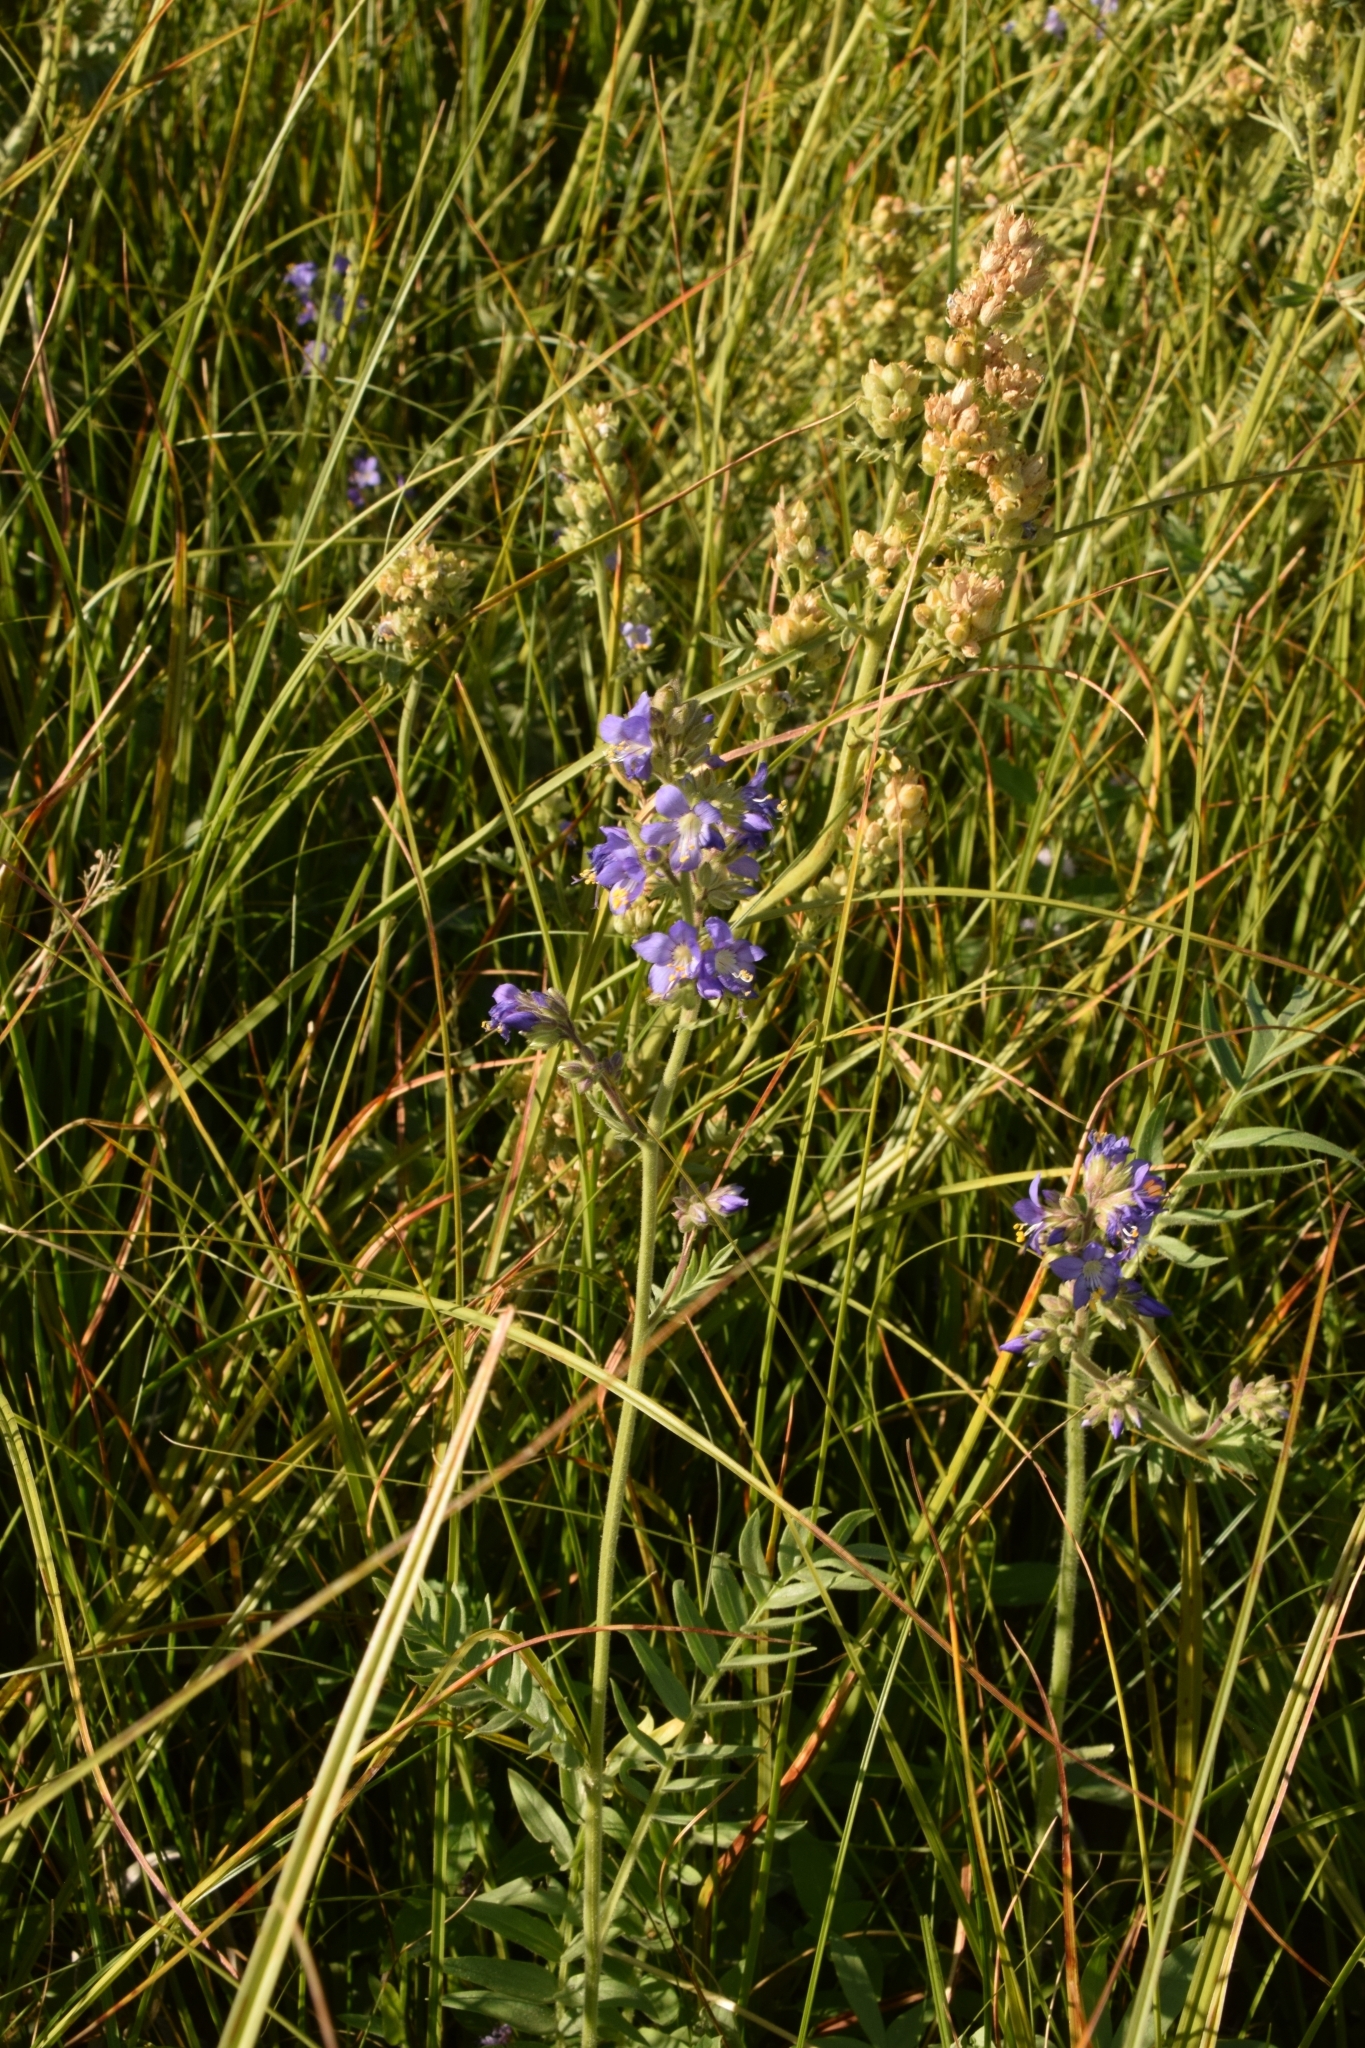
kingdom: Plantae
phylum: Tracheophyta
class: Magnoliopsida
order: Ericales
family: Polemoniaceae
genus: Polemonium
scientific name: Polemonium occidentale
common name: Western jacob's-ladder
